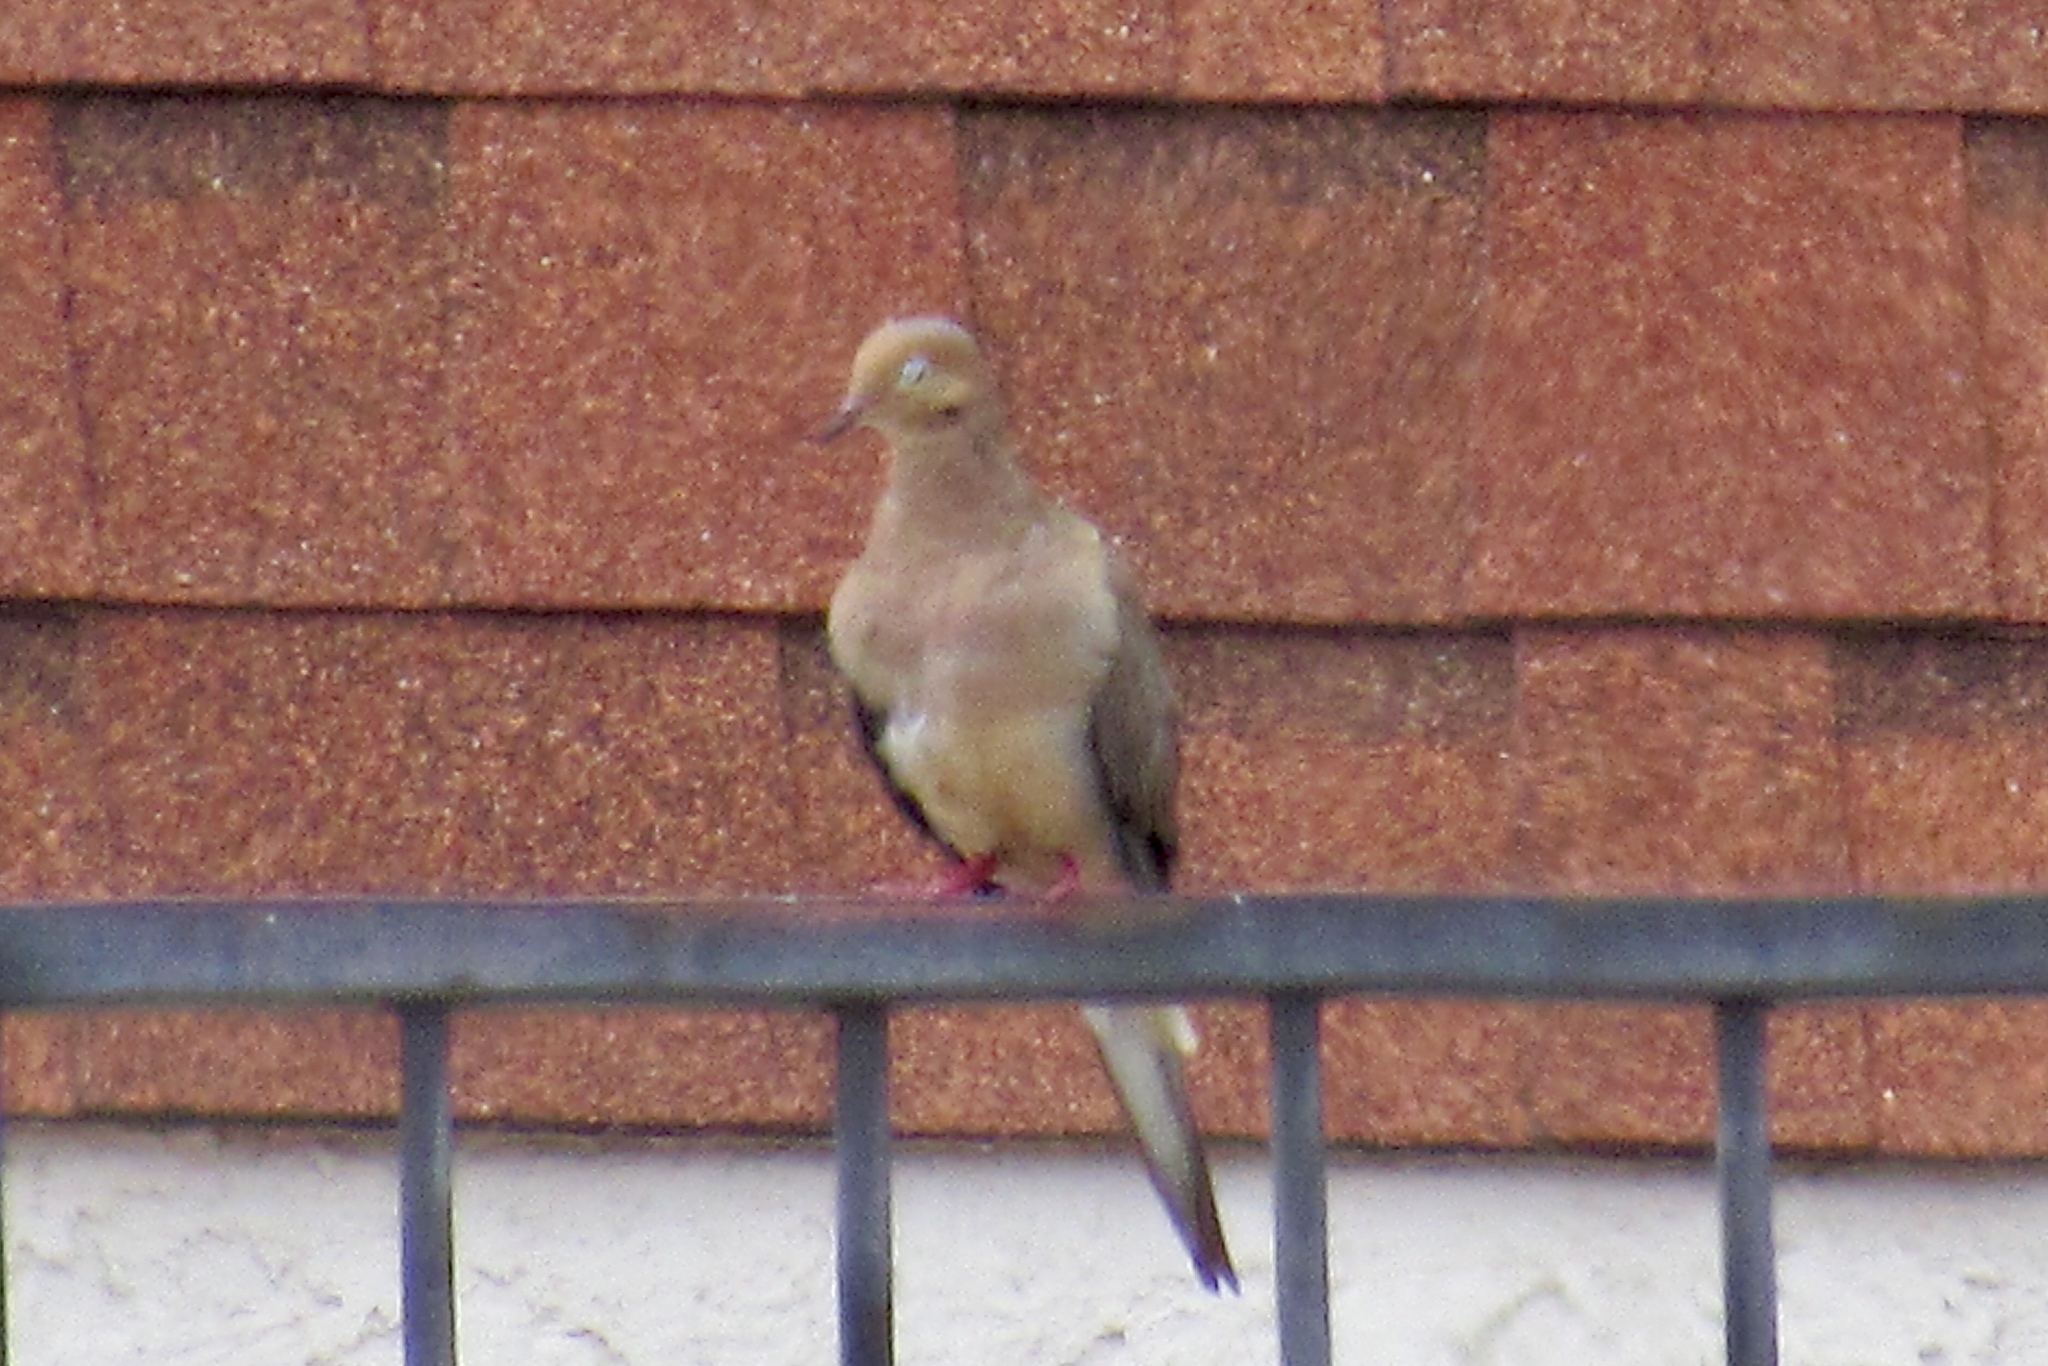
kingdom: Animalia
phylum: Chordata
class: Aves
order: Columbiformes
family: Columbidae
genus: Zenaida
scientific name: Zenaida macroura
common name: Mourning dove
